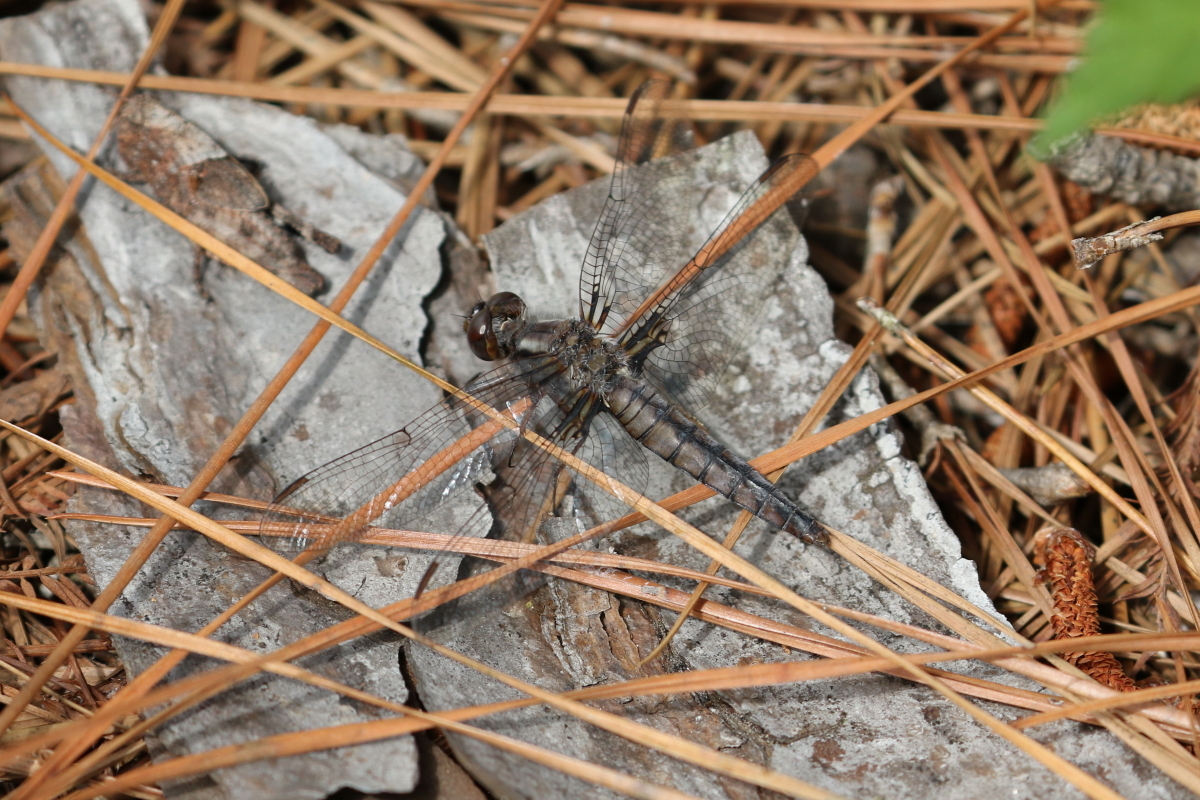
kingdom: Animalia
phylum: Arthropoda
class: Insecta
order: Odonata
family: Libellulidae
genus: Ladona
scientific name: Ladona deplanata
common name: Blue corporal
